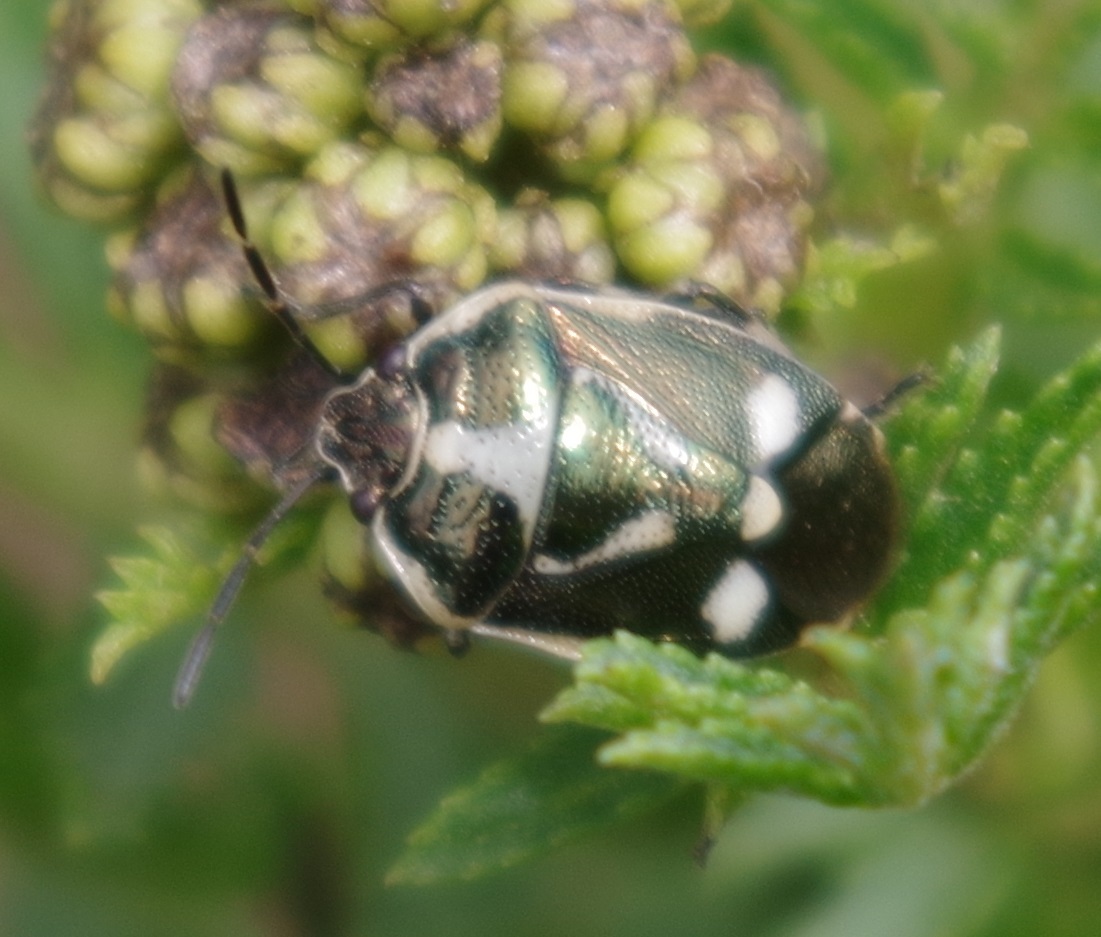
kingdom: Animalia
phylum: Arthropoda
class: Insecta
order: Hemiptera
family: Pentatomidae
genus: Eurydema
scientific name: Eurydema oleracea
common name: Cabbage bug
